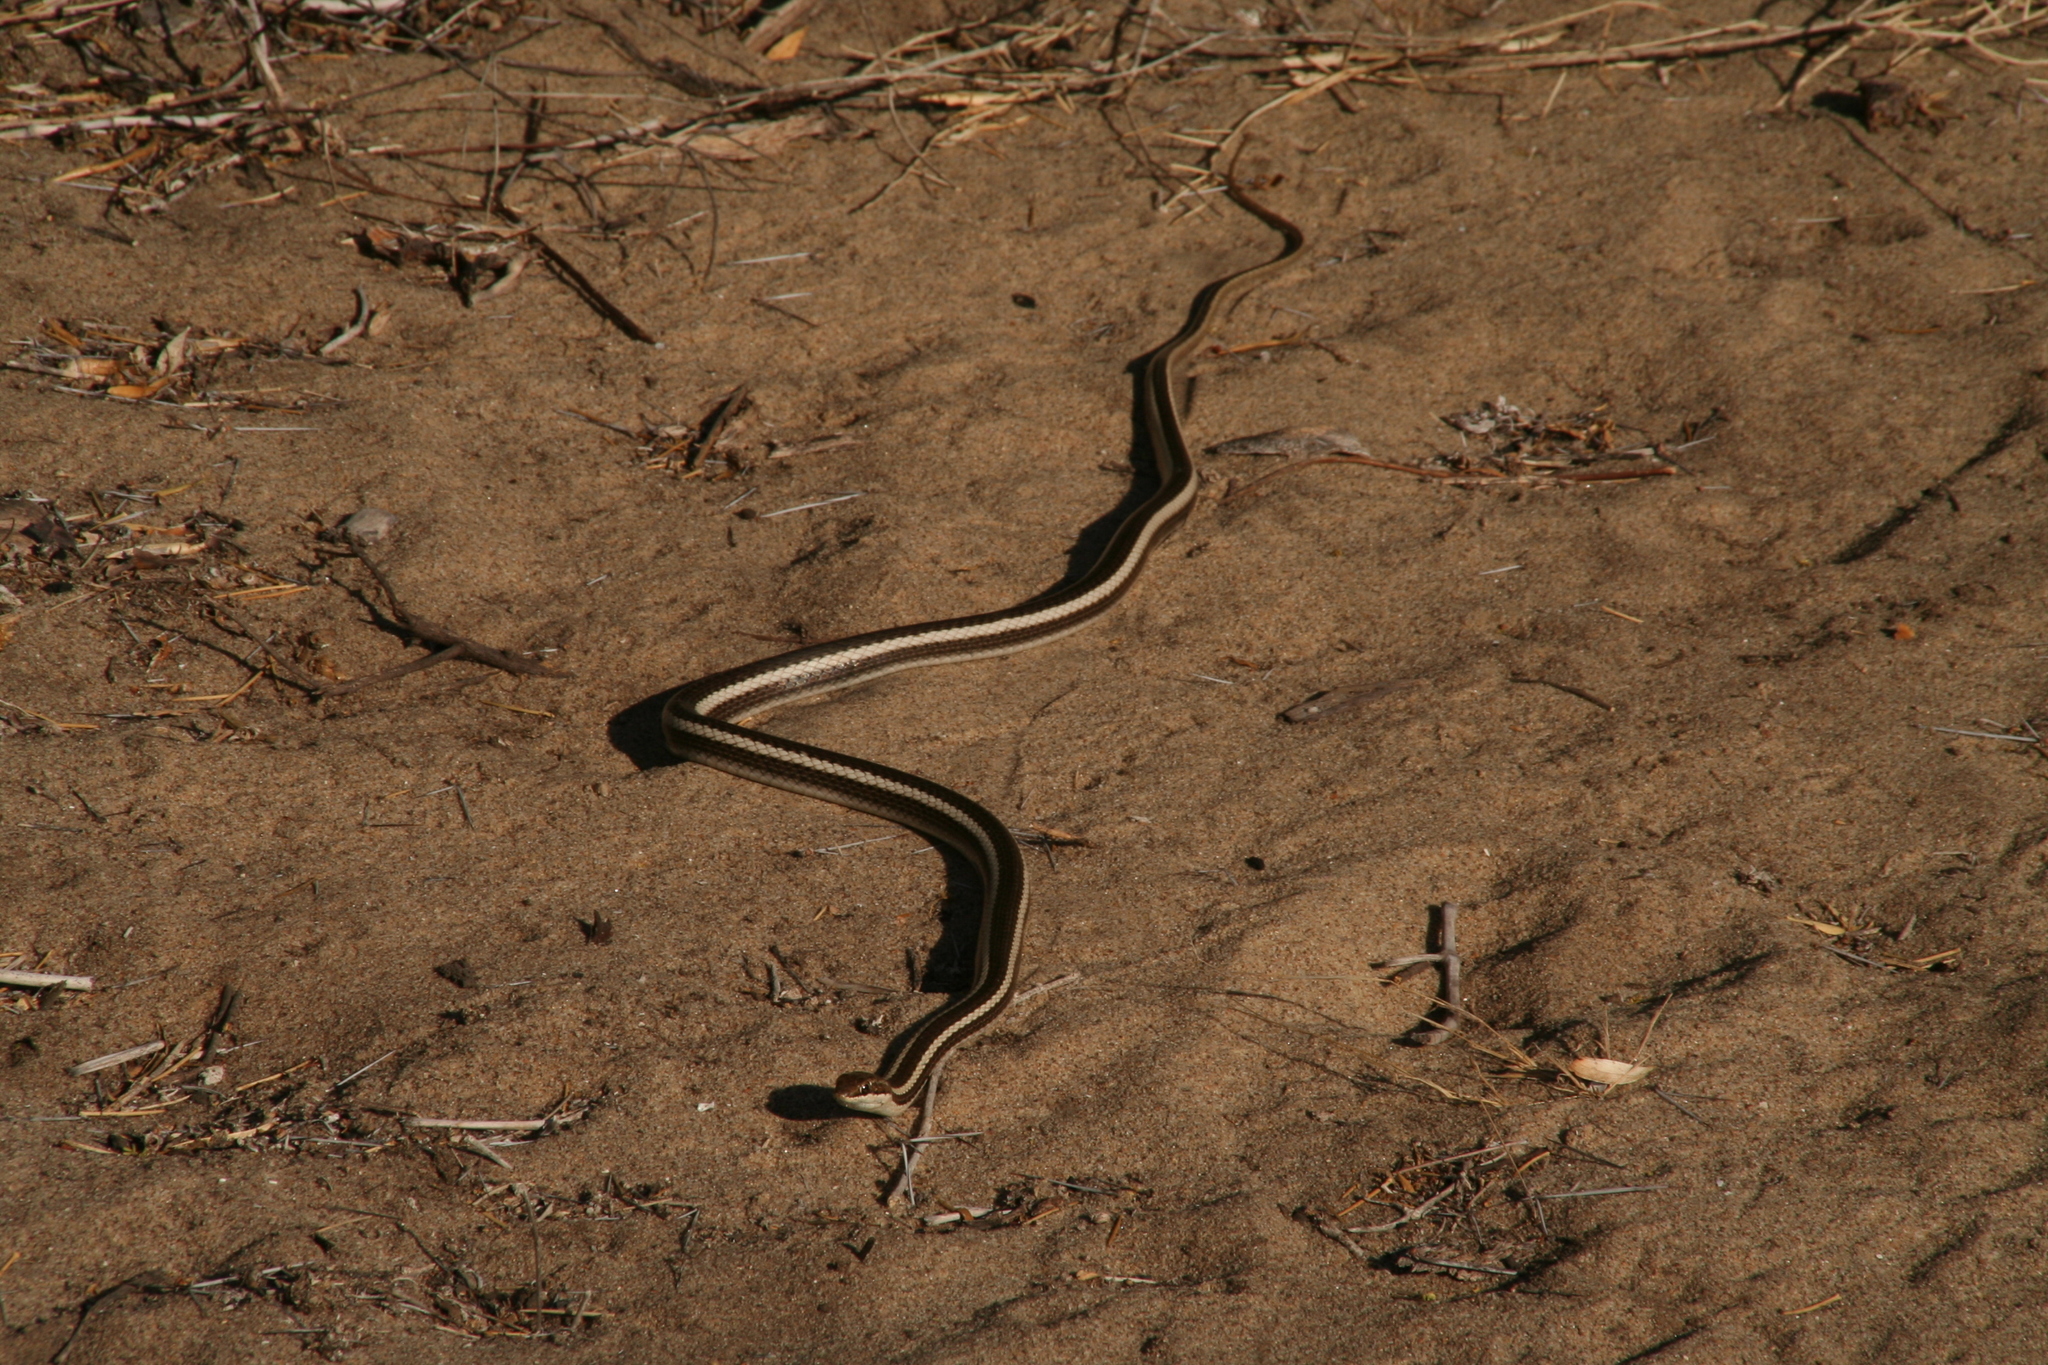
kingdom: Animalia
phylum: Chordata
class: Squamata
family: Pseudoxyrhophiidae
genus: Dromicodryas
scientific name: Dromicodryas bernieri
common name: Bernier's striped snake
